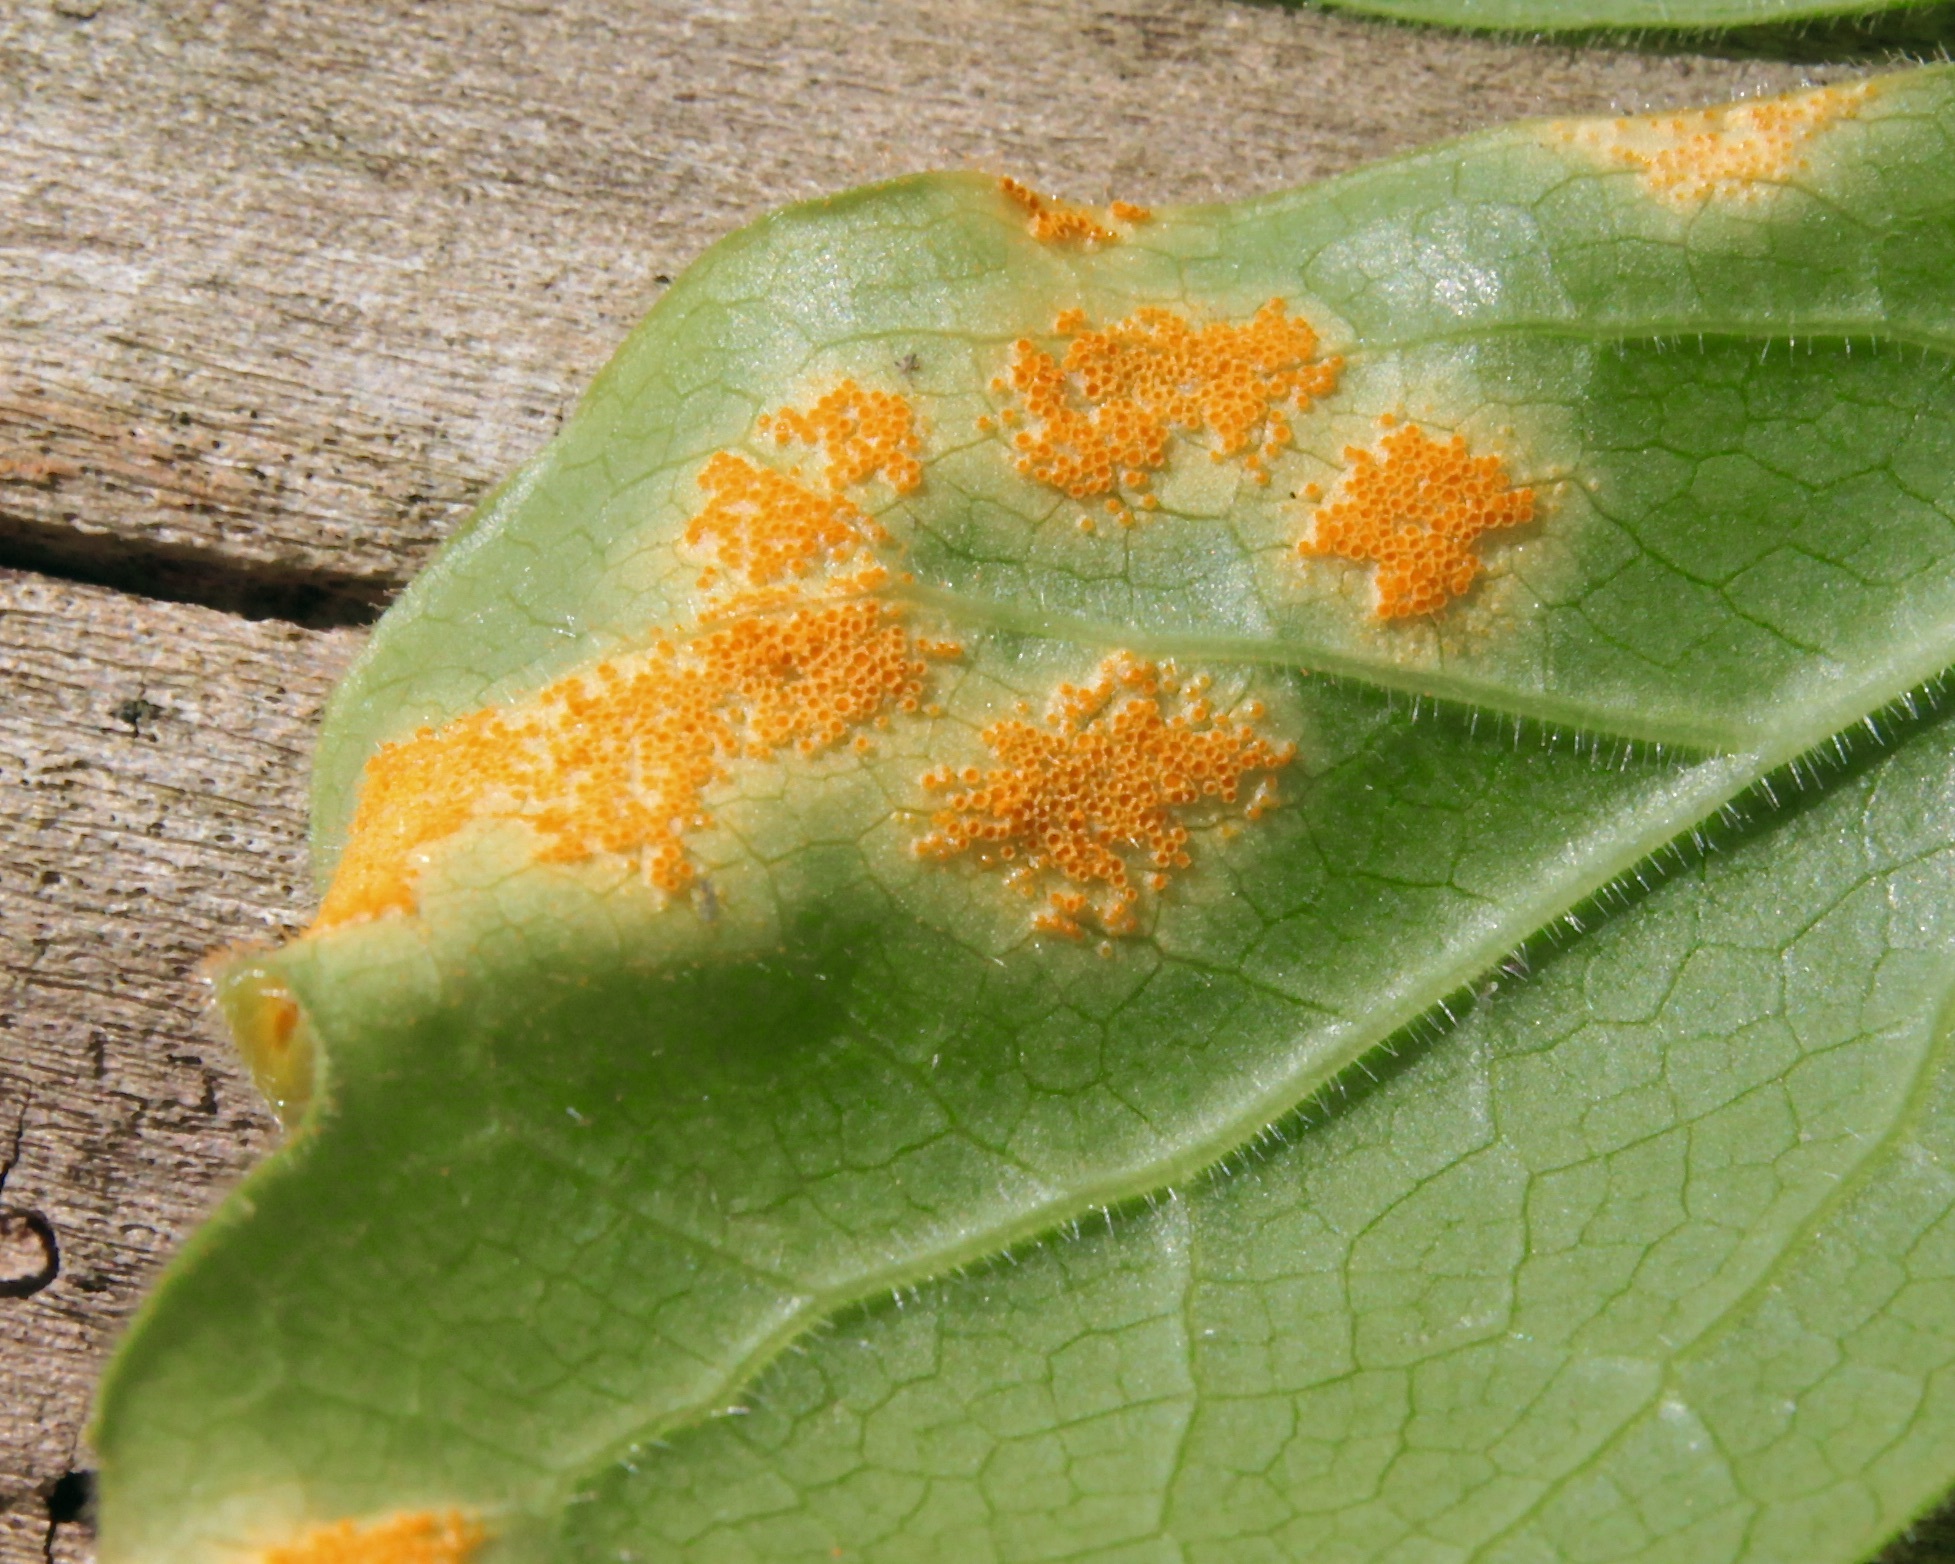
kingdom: Fungi
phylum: Basidiomycota
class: Pucciniomycetes
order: Pucciniales
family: Pucciniaceae
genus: Puccinia
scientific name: Puccinia podophylli
